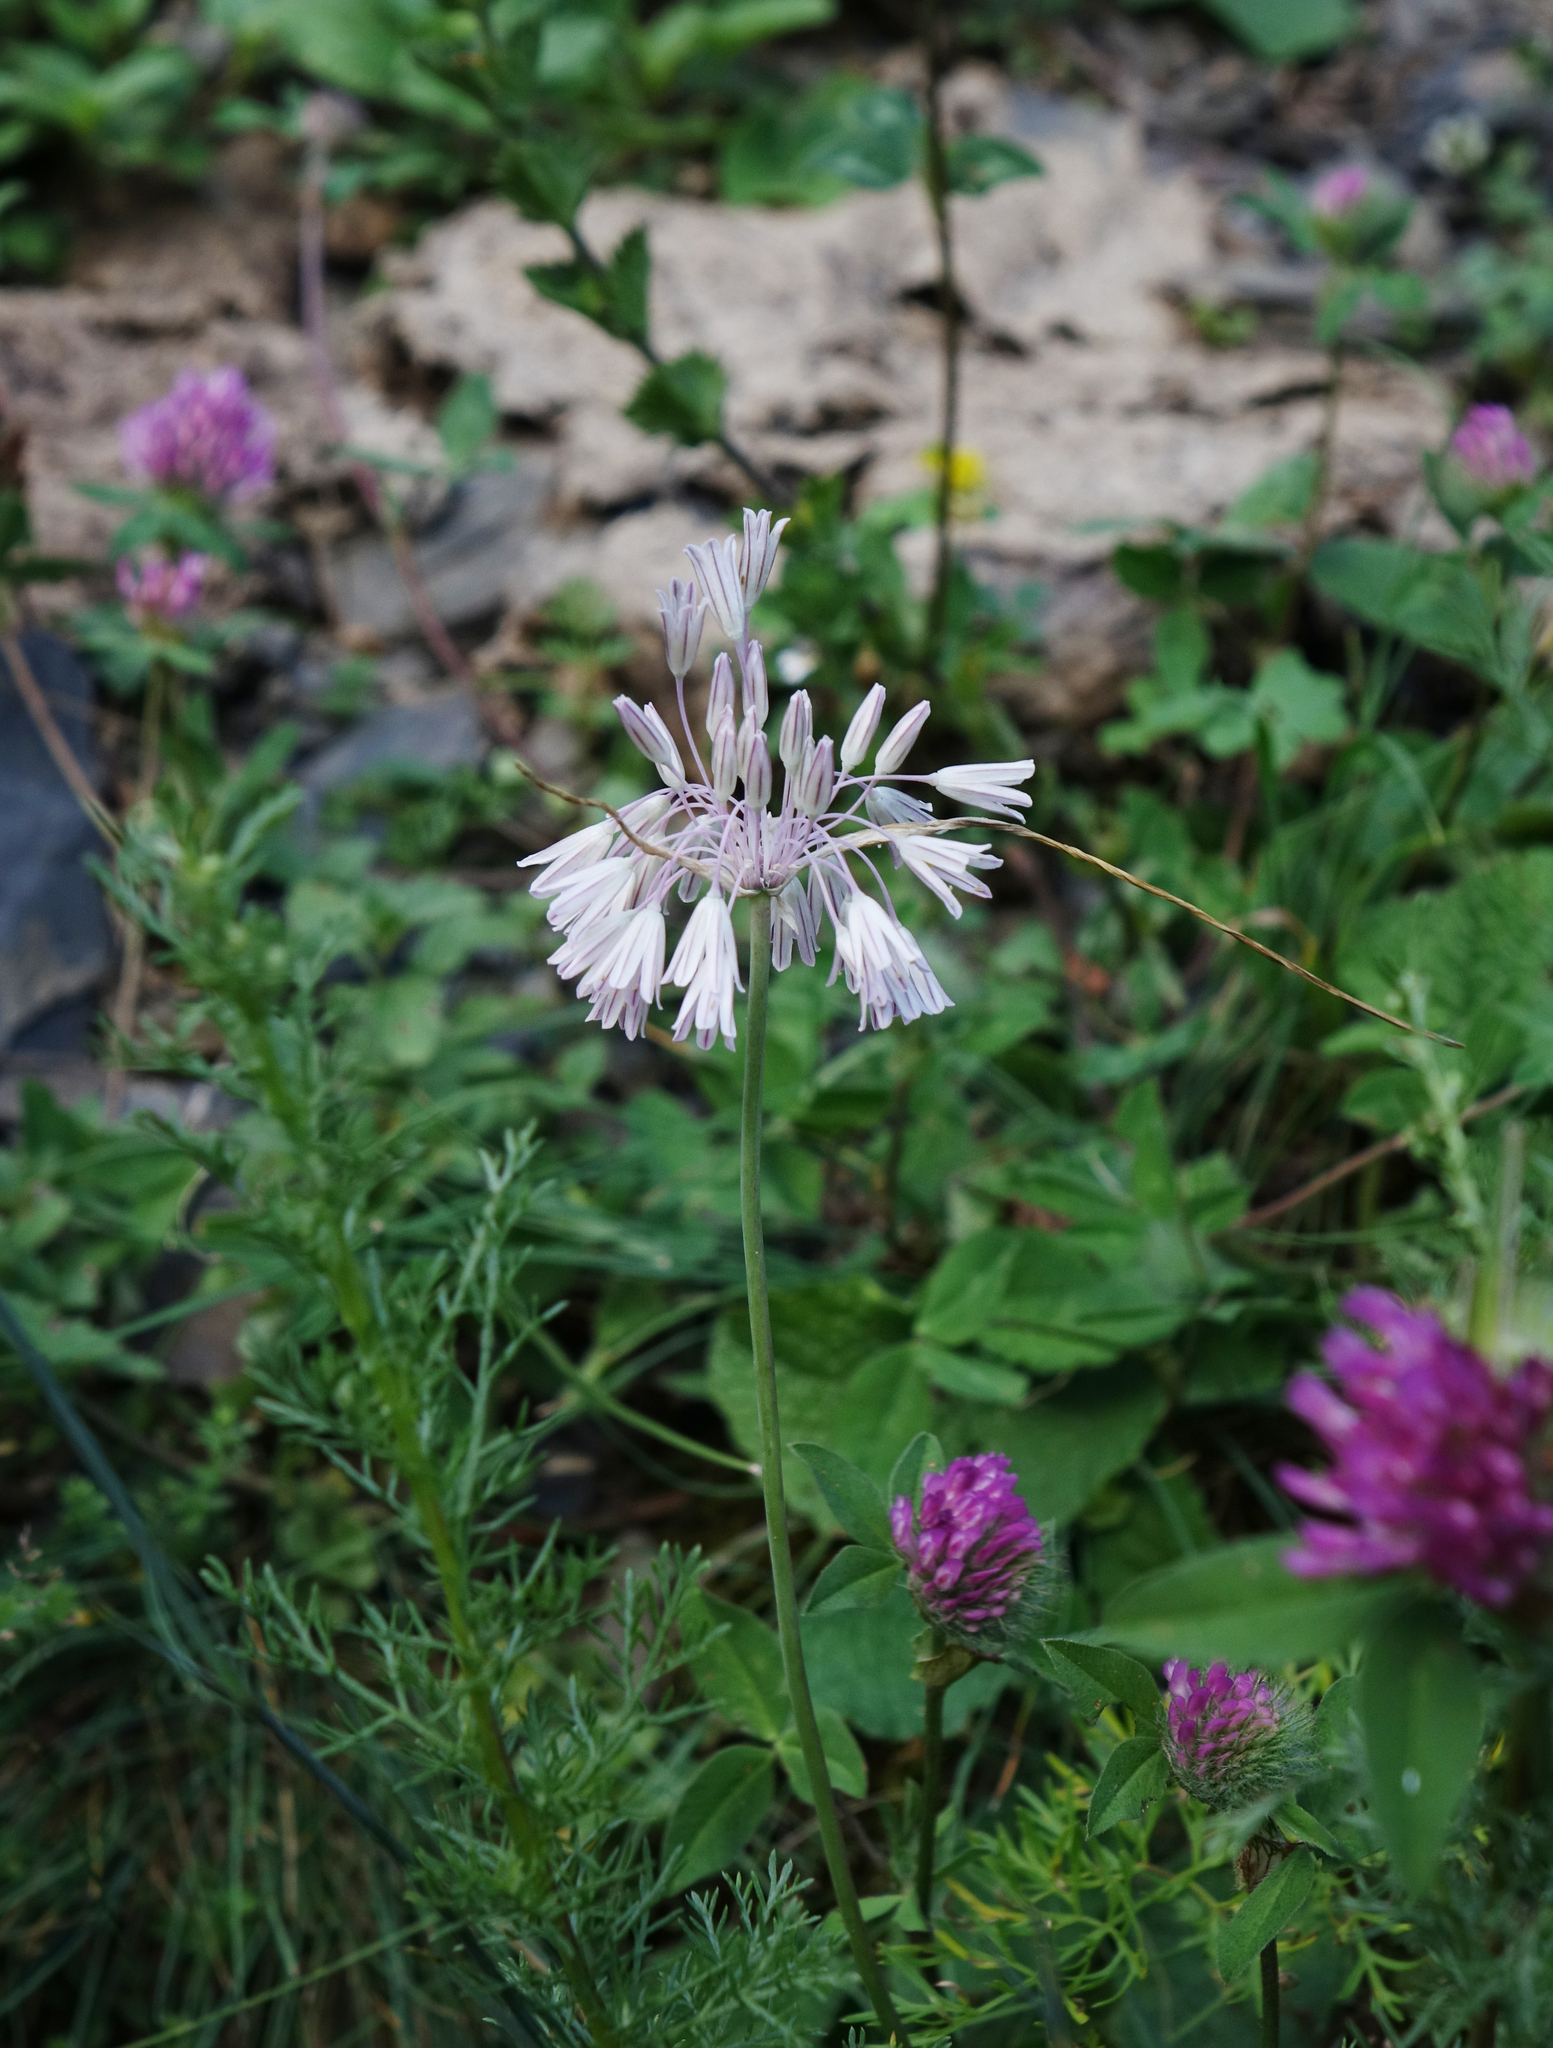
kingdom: Plantae
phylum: Tracheophyta
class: Liliopsida
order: Asparagales
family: Amaryllidaceae
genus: Allium
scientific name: Allium kunthianum
